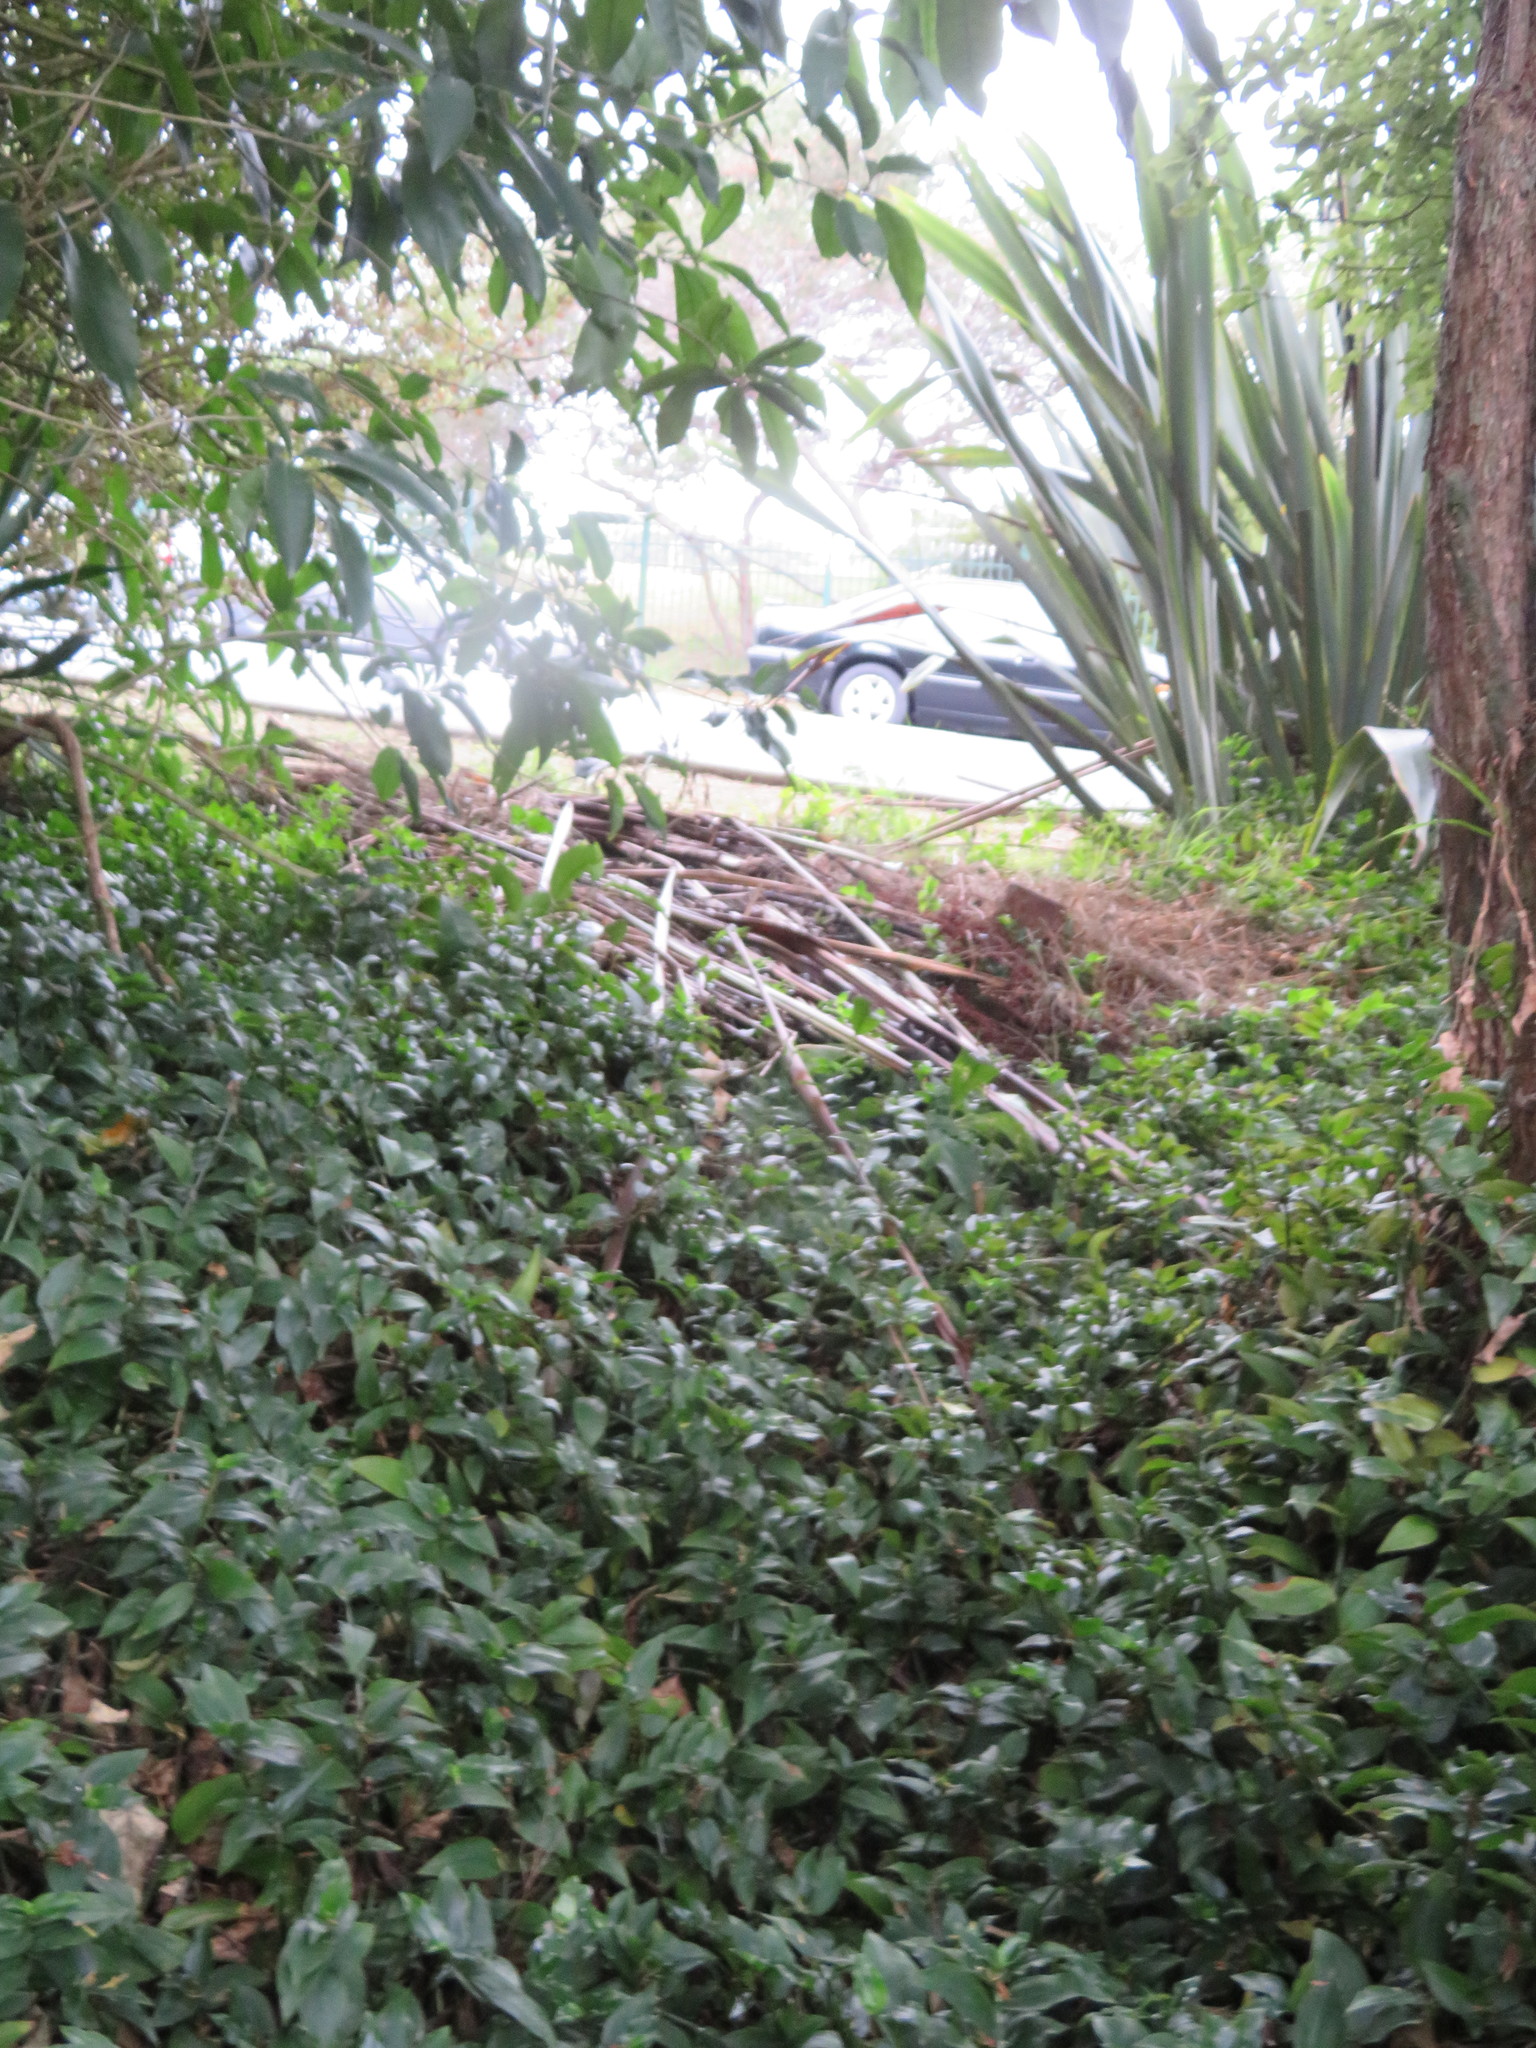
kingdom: Plantae
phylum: Tracheophyta
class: Liliopsida
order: Commelinales
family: Commelinaceae
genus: Tradescantia
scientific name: Tradescantia fluminensis
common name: Wandering-jew
